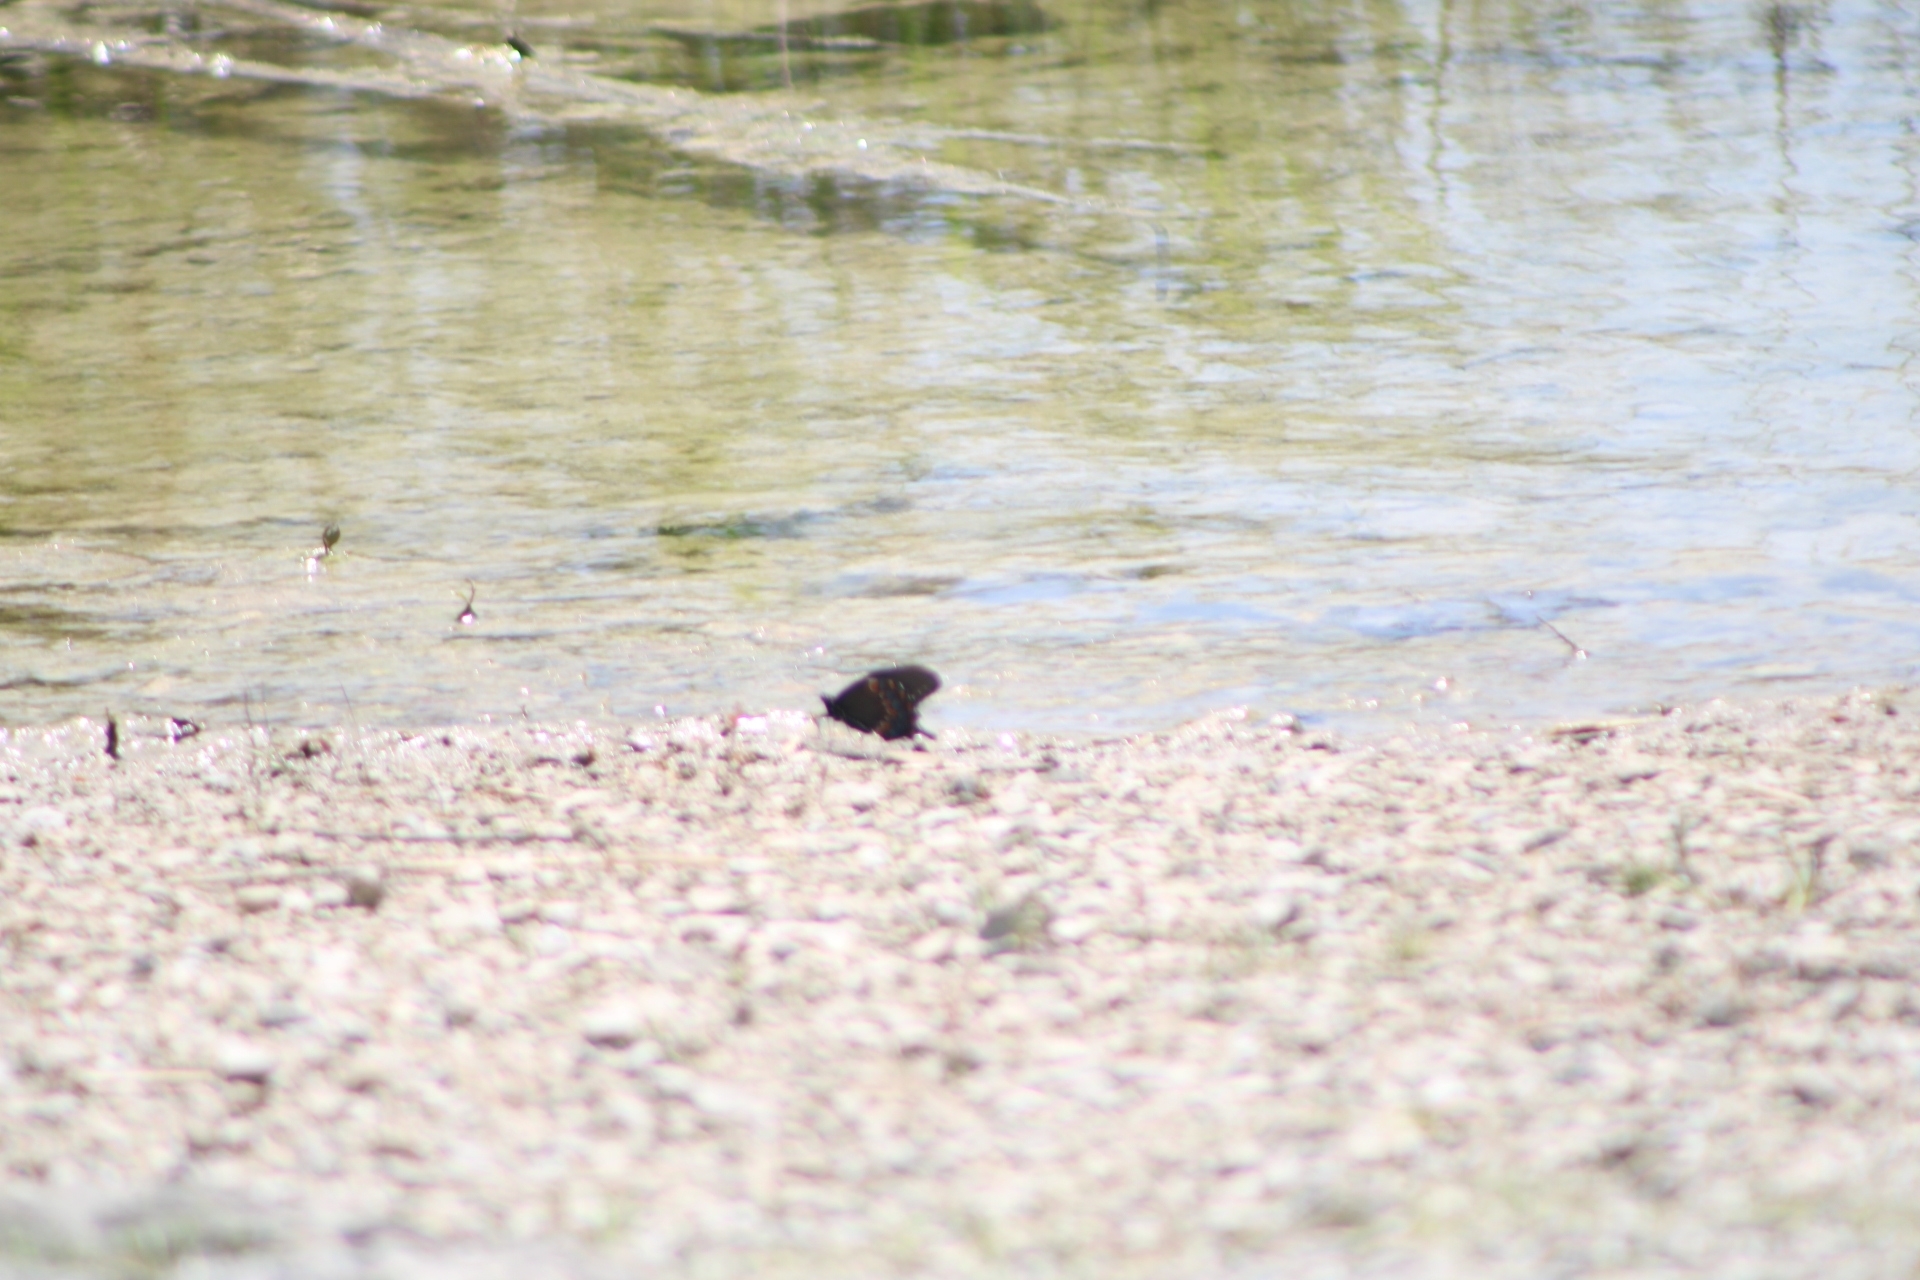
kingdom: Animalia
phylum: Arthropoda
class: Insecta
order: Lepidoptera
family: Papilionidae
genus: Papilio
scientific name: Papilio troilus
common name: Spicebush swallowtail
